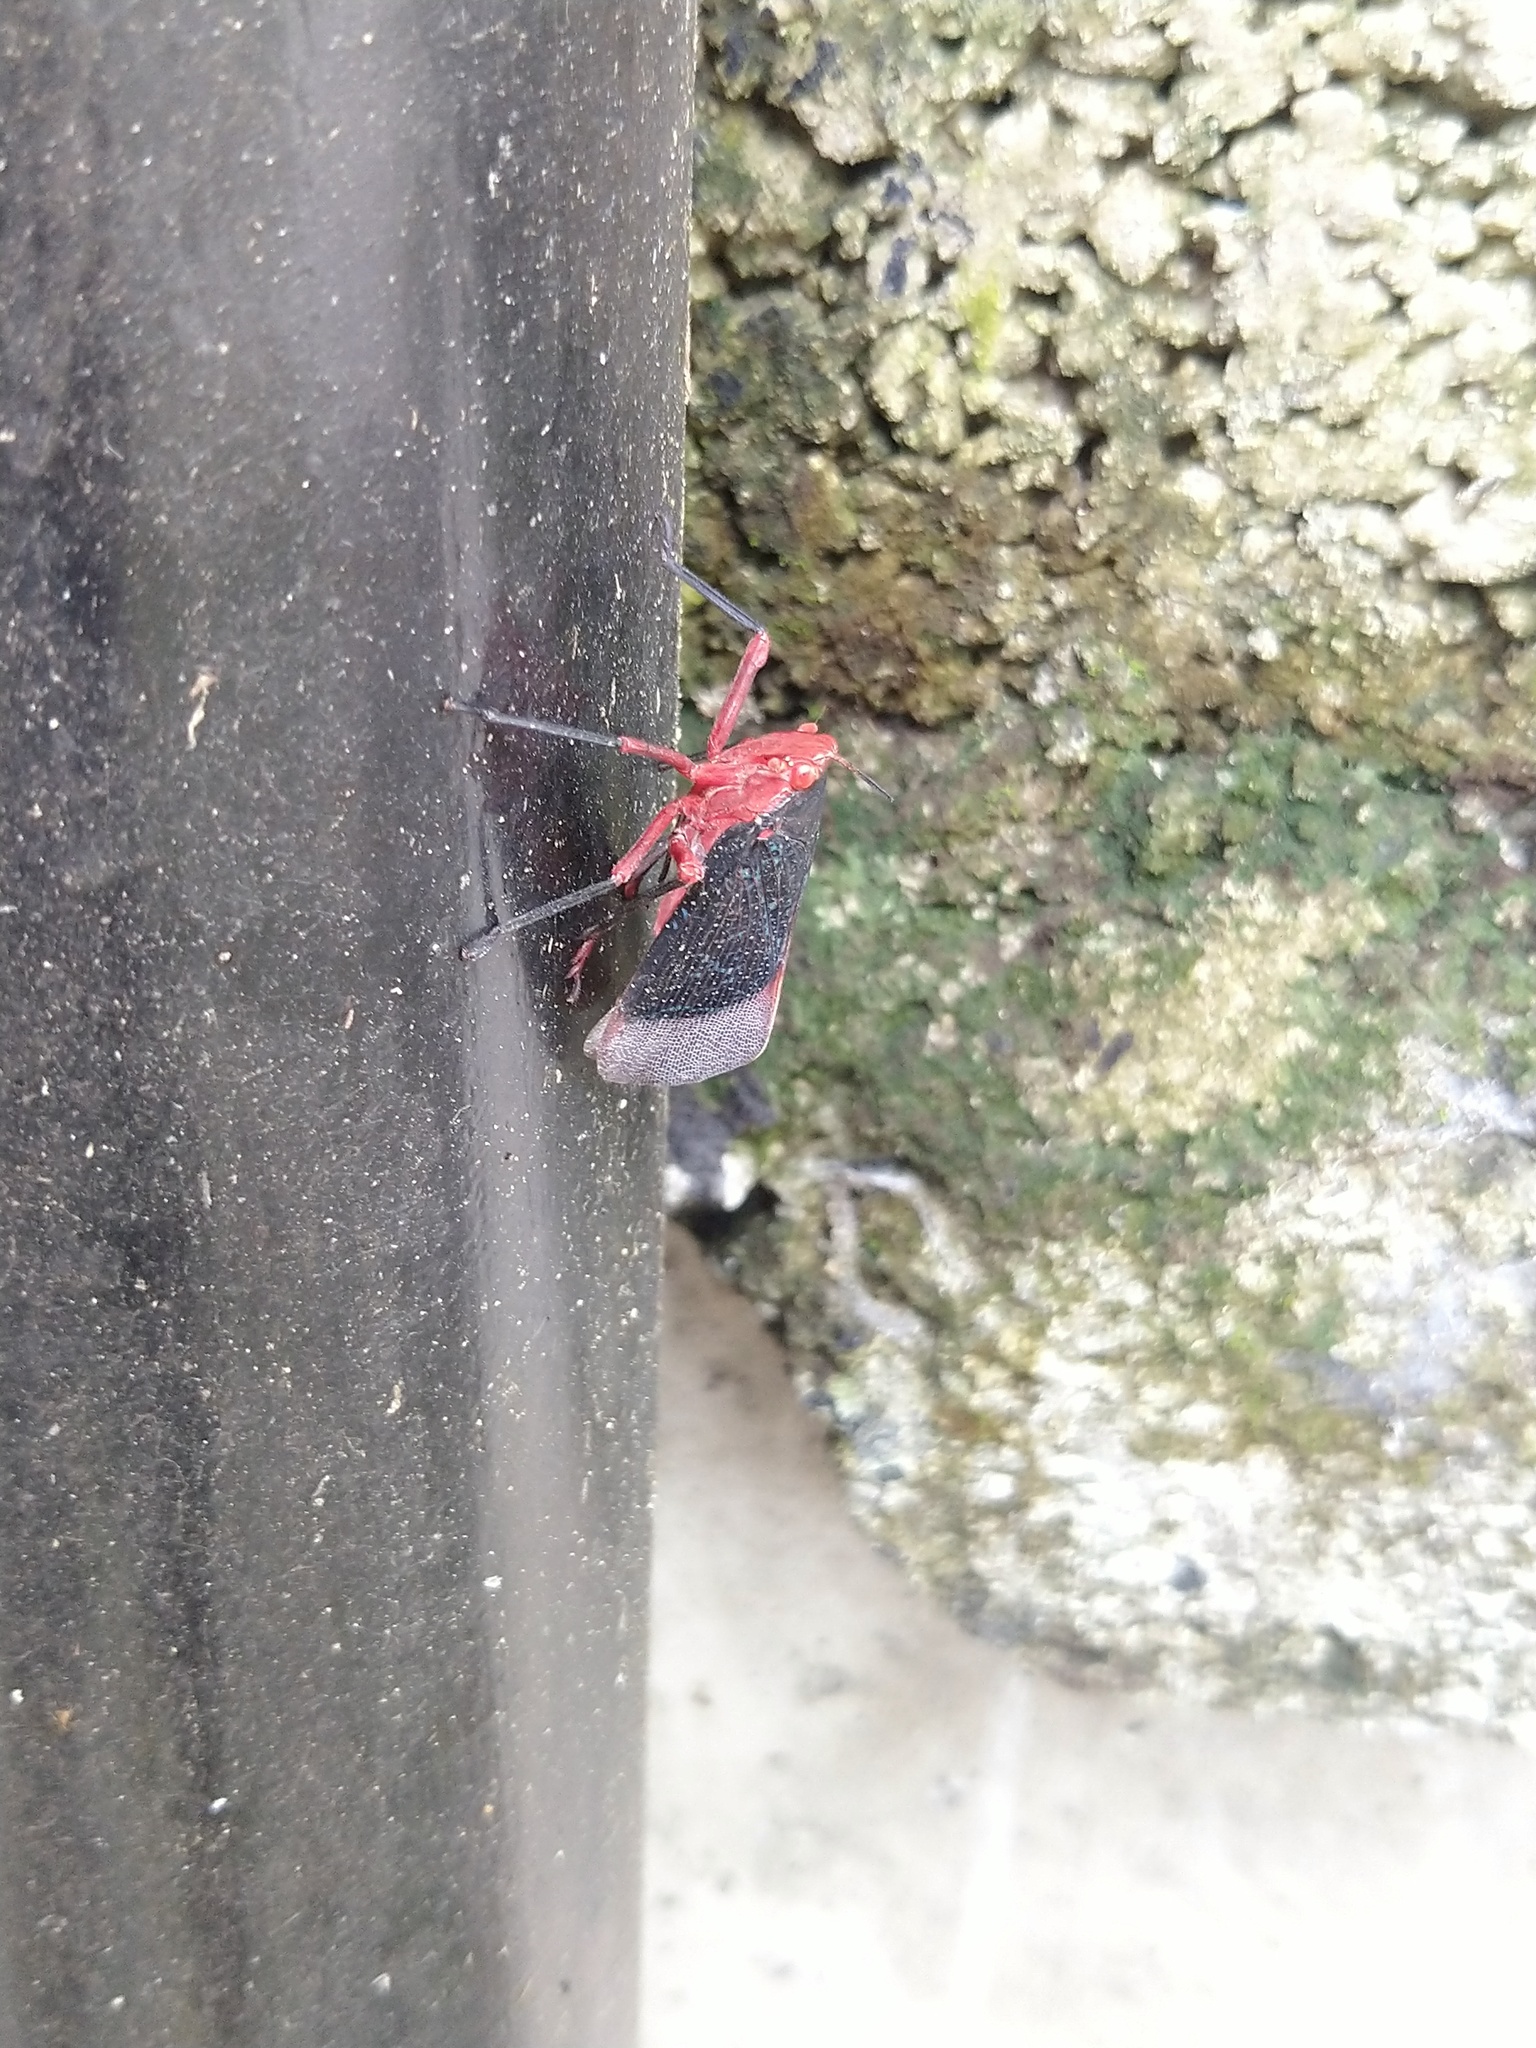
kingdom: Animalia
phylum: Arthropoda
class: Insecta
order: Hemiptera
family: Fulgoridae
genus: Kalidasa
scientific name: Kalidasa lanata
